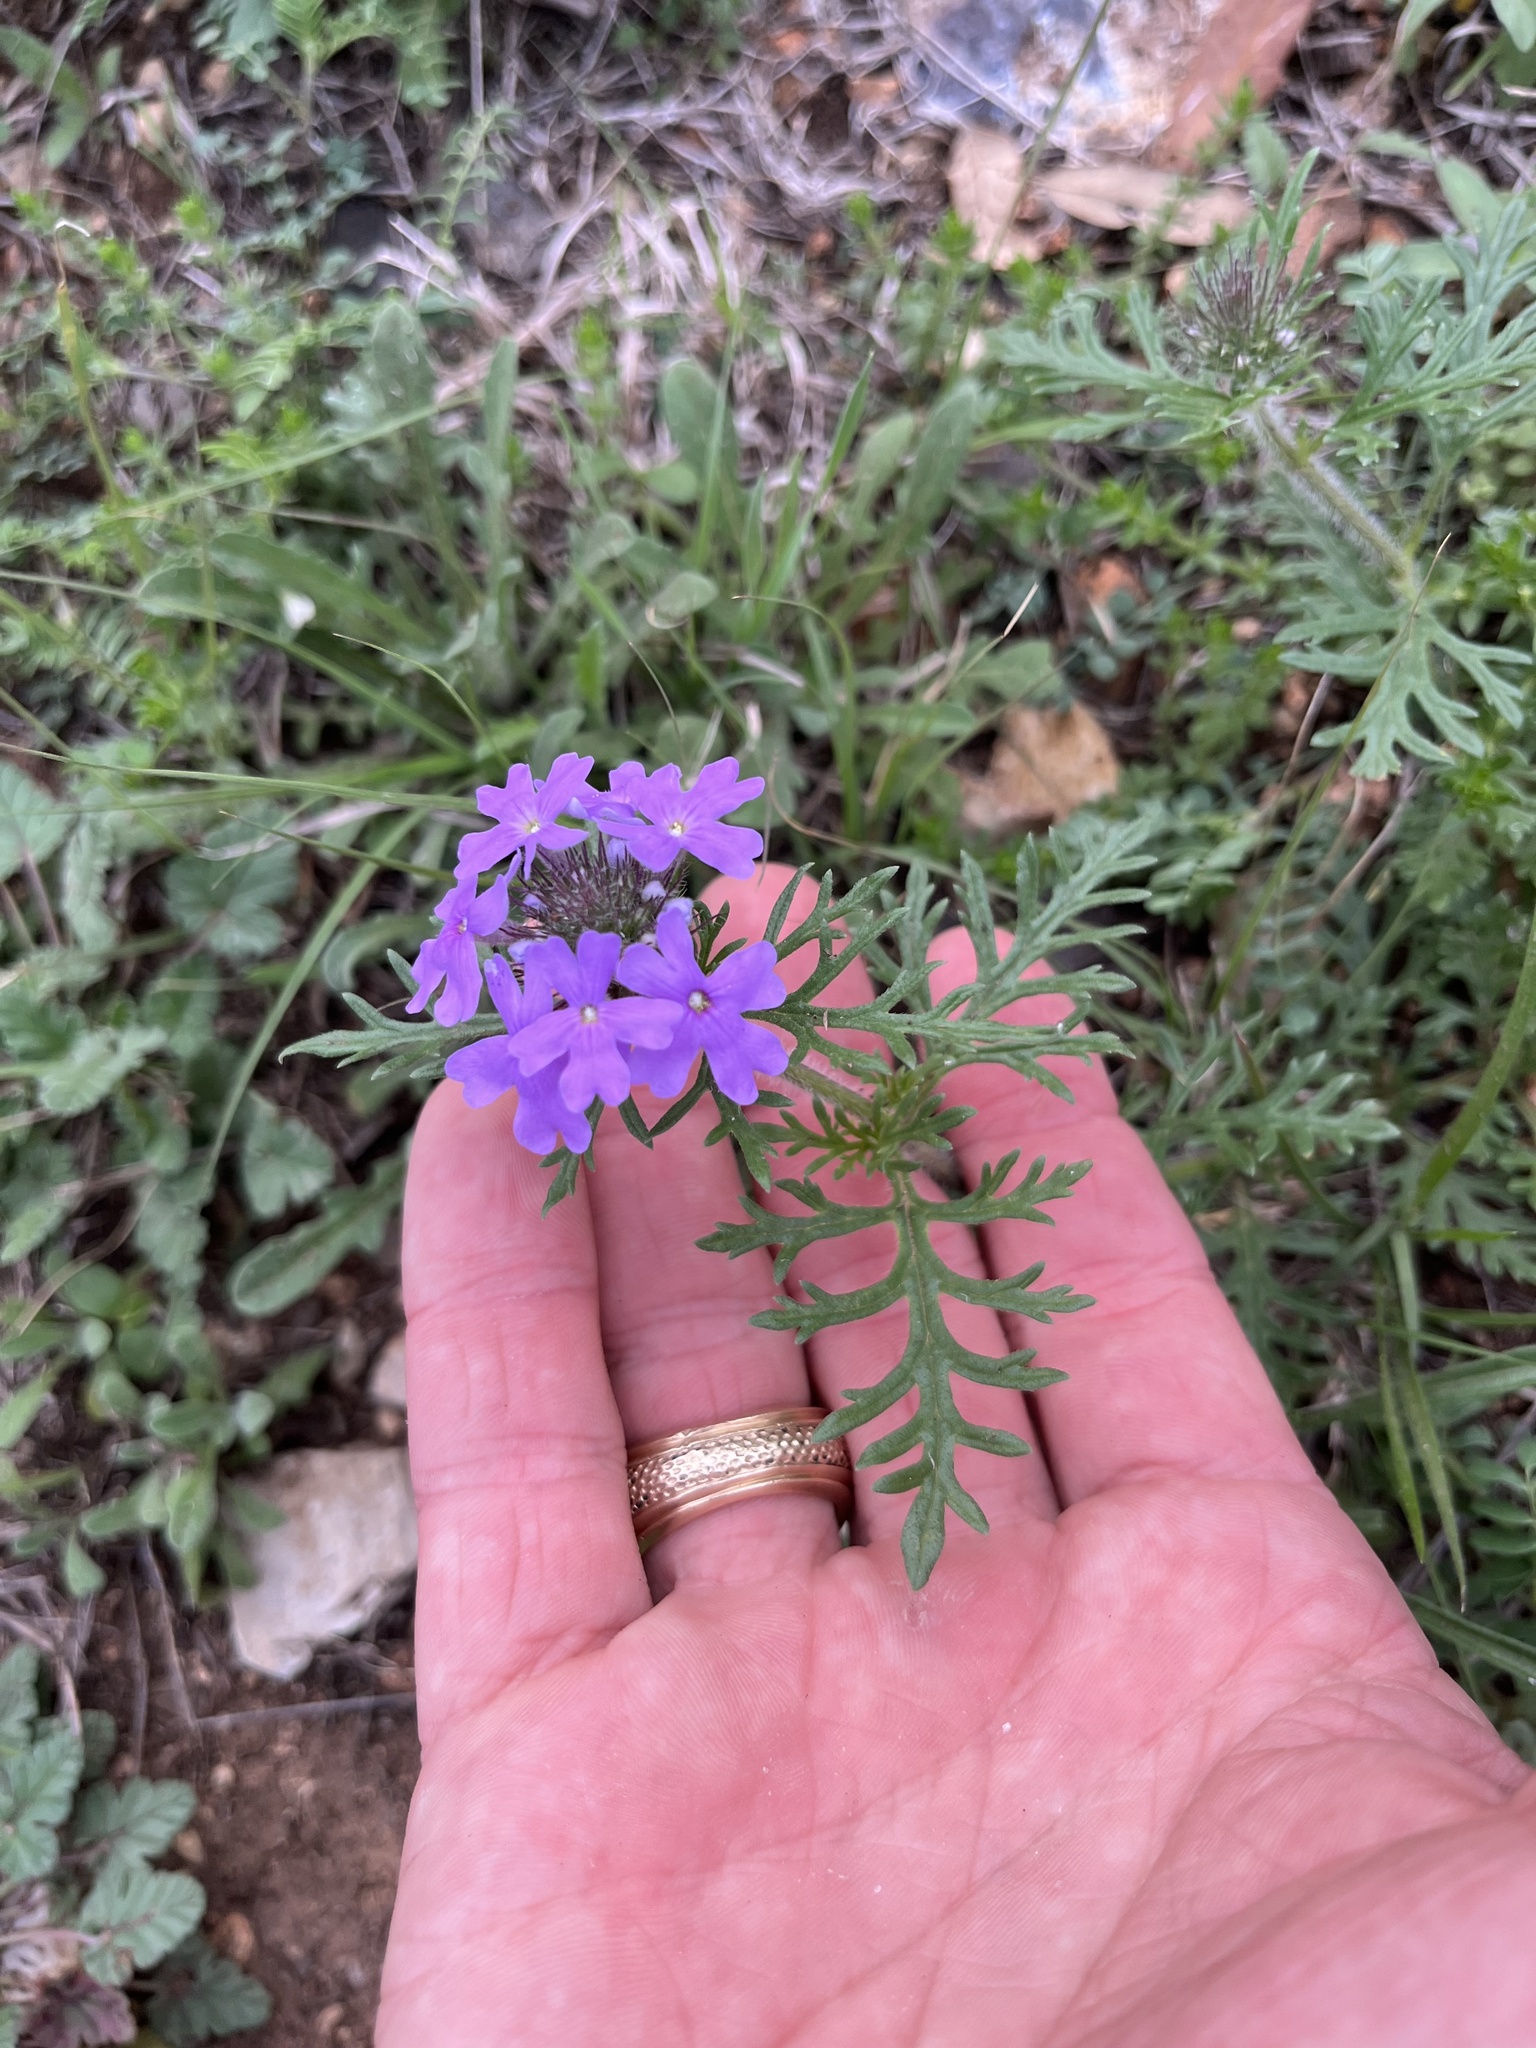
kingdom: Plantae
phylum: Tracheophyta
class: Magnoliopsida
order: Lamiales
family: Verbenaceae
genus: Verbena
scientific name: Verbena bipinnatifida
